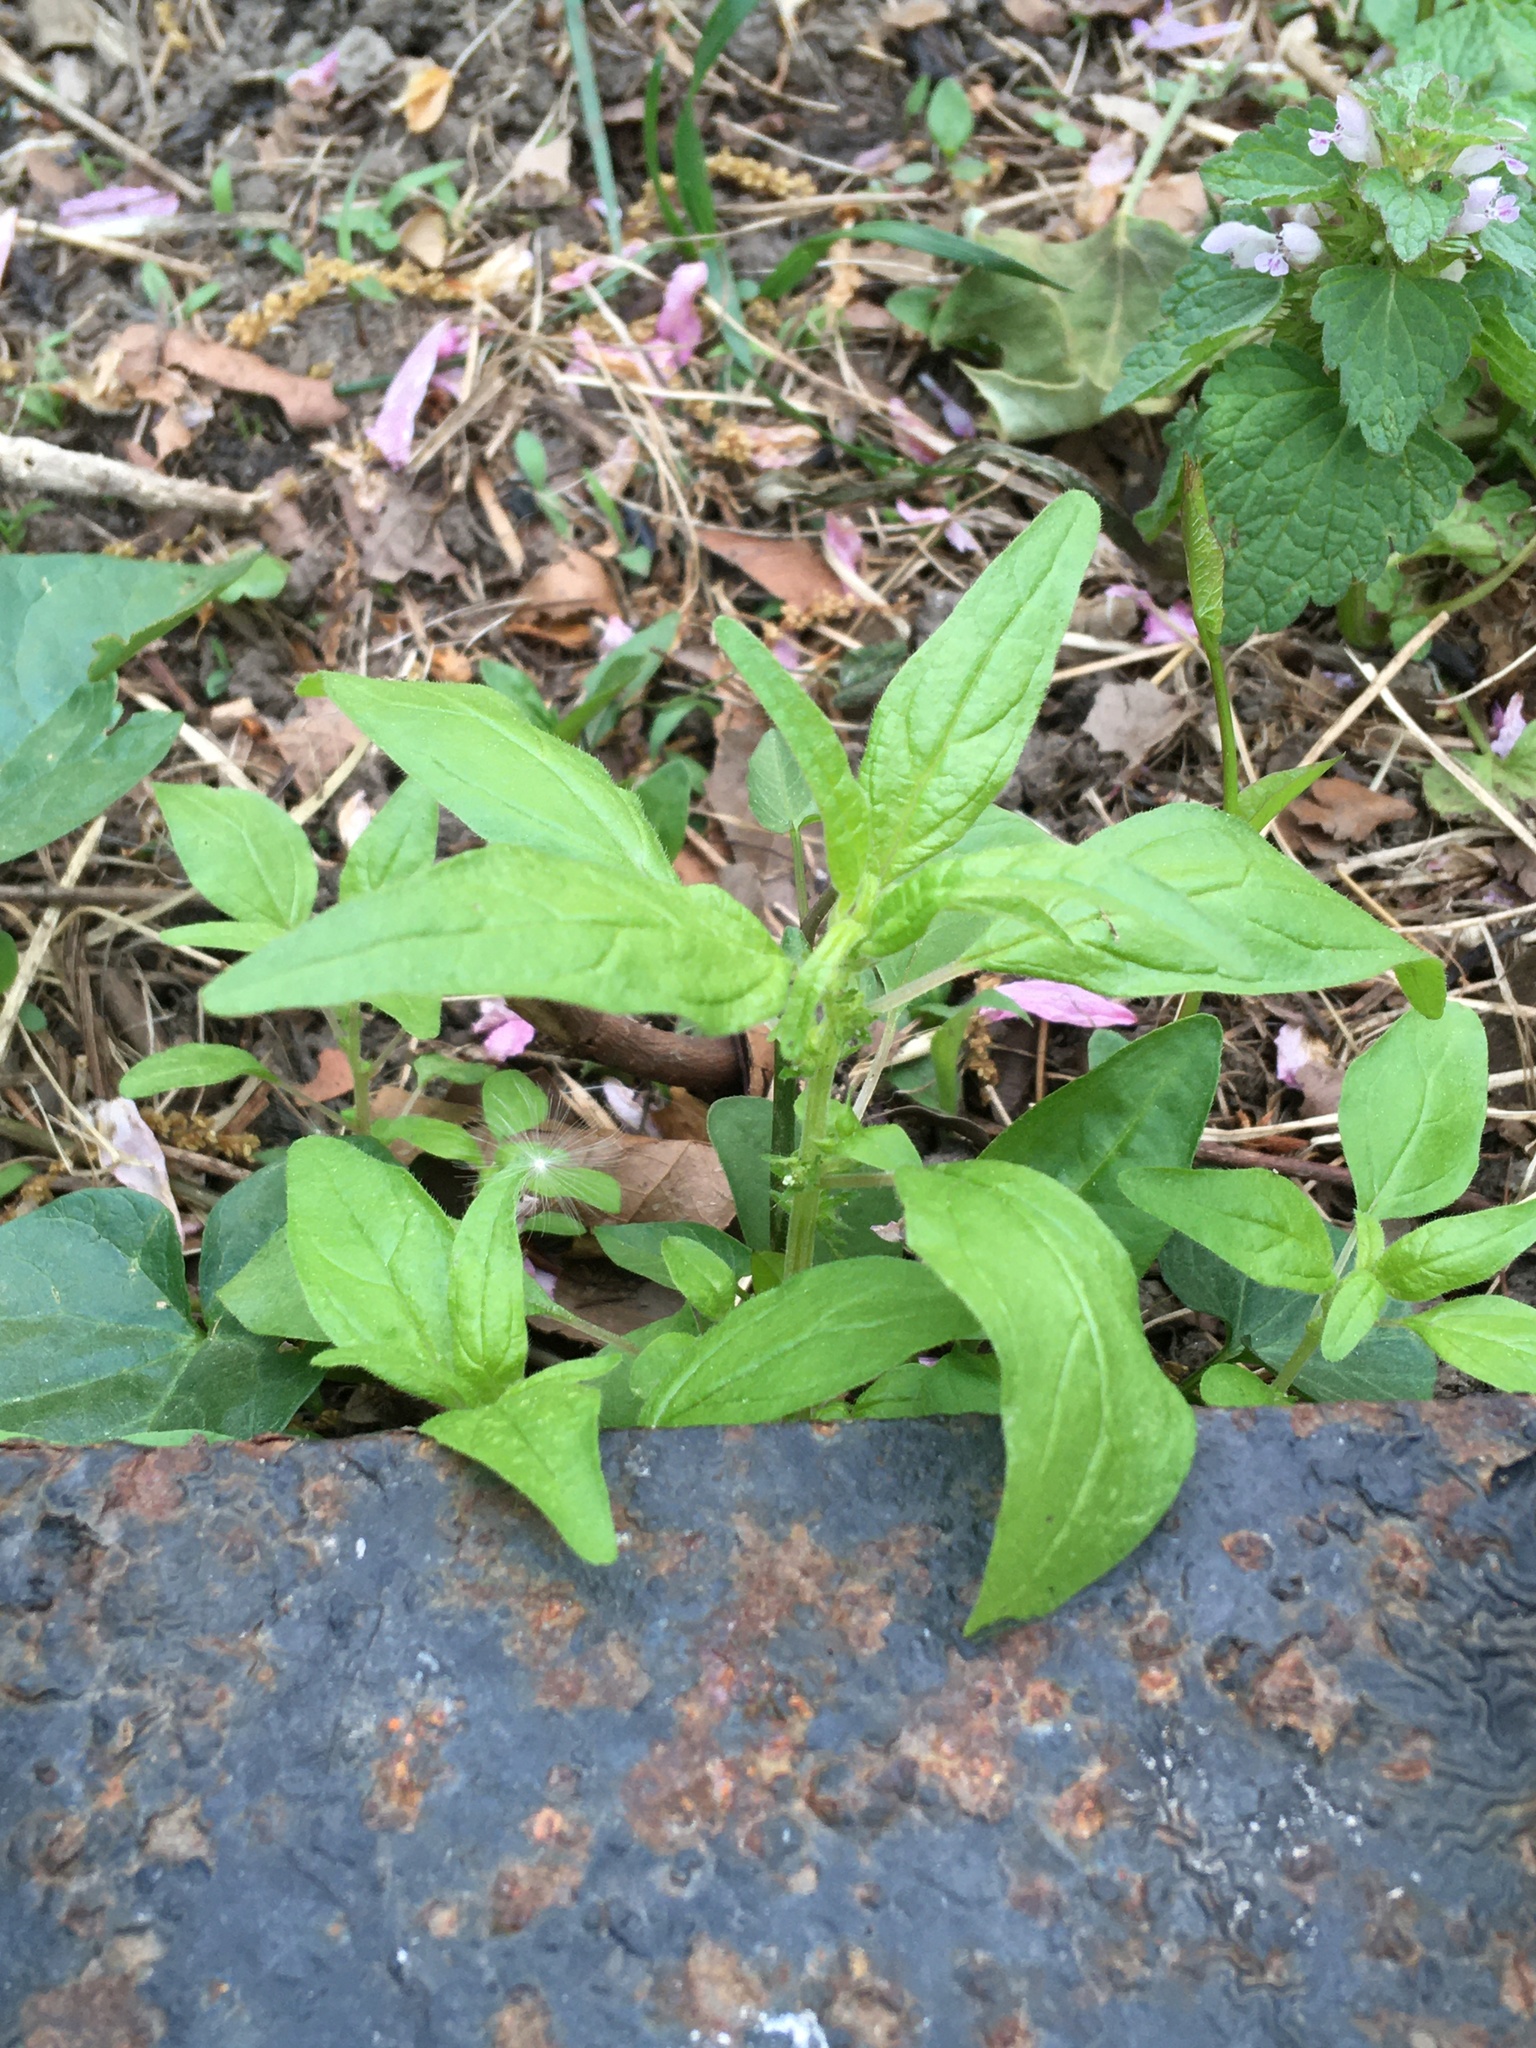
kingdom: Plantae
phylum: Tracheophyta
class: Magnoliopsida
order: Rosales
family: Urticaceae
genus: Parietaria
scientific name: Parietaria pensylvanica
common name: Pennsylvania pellitory
